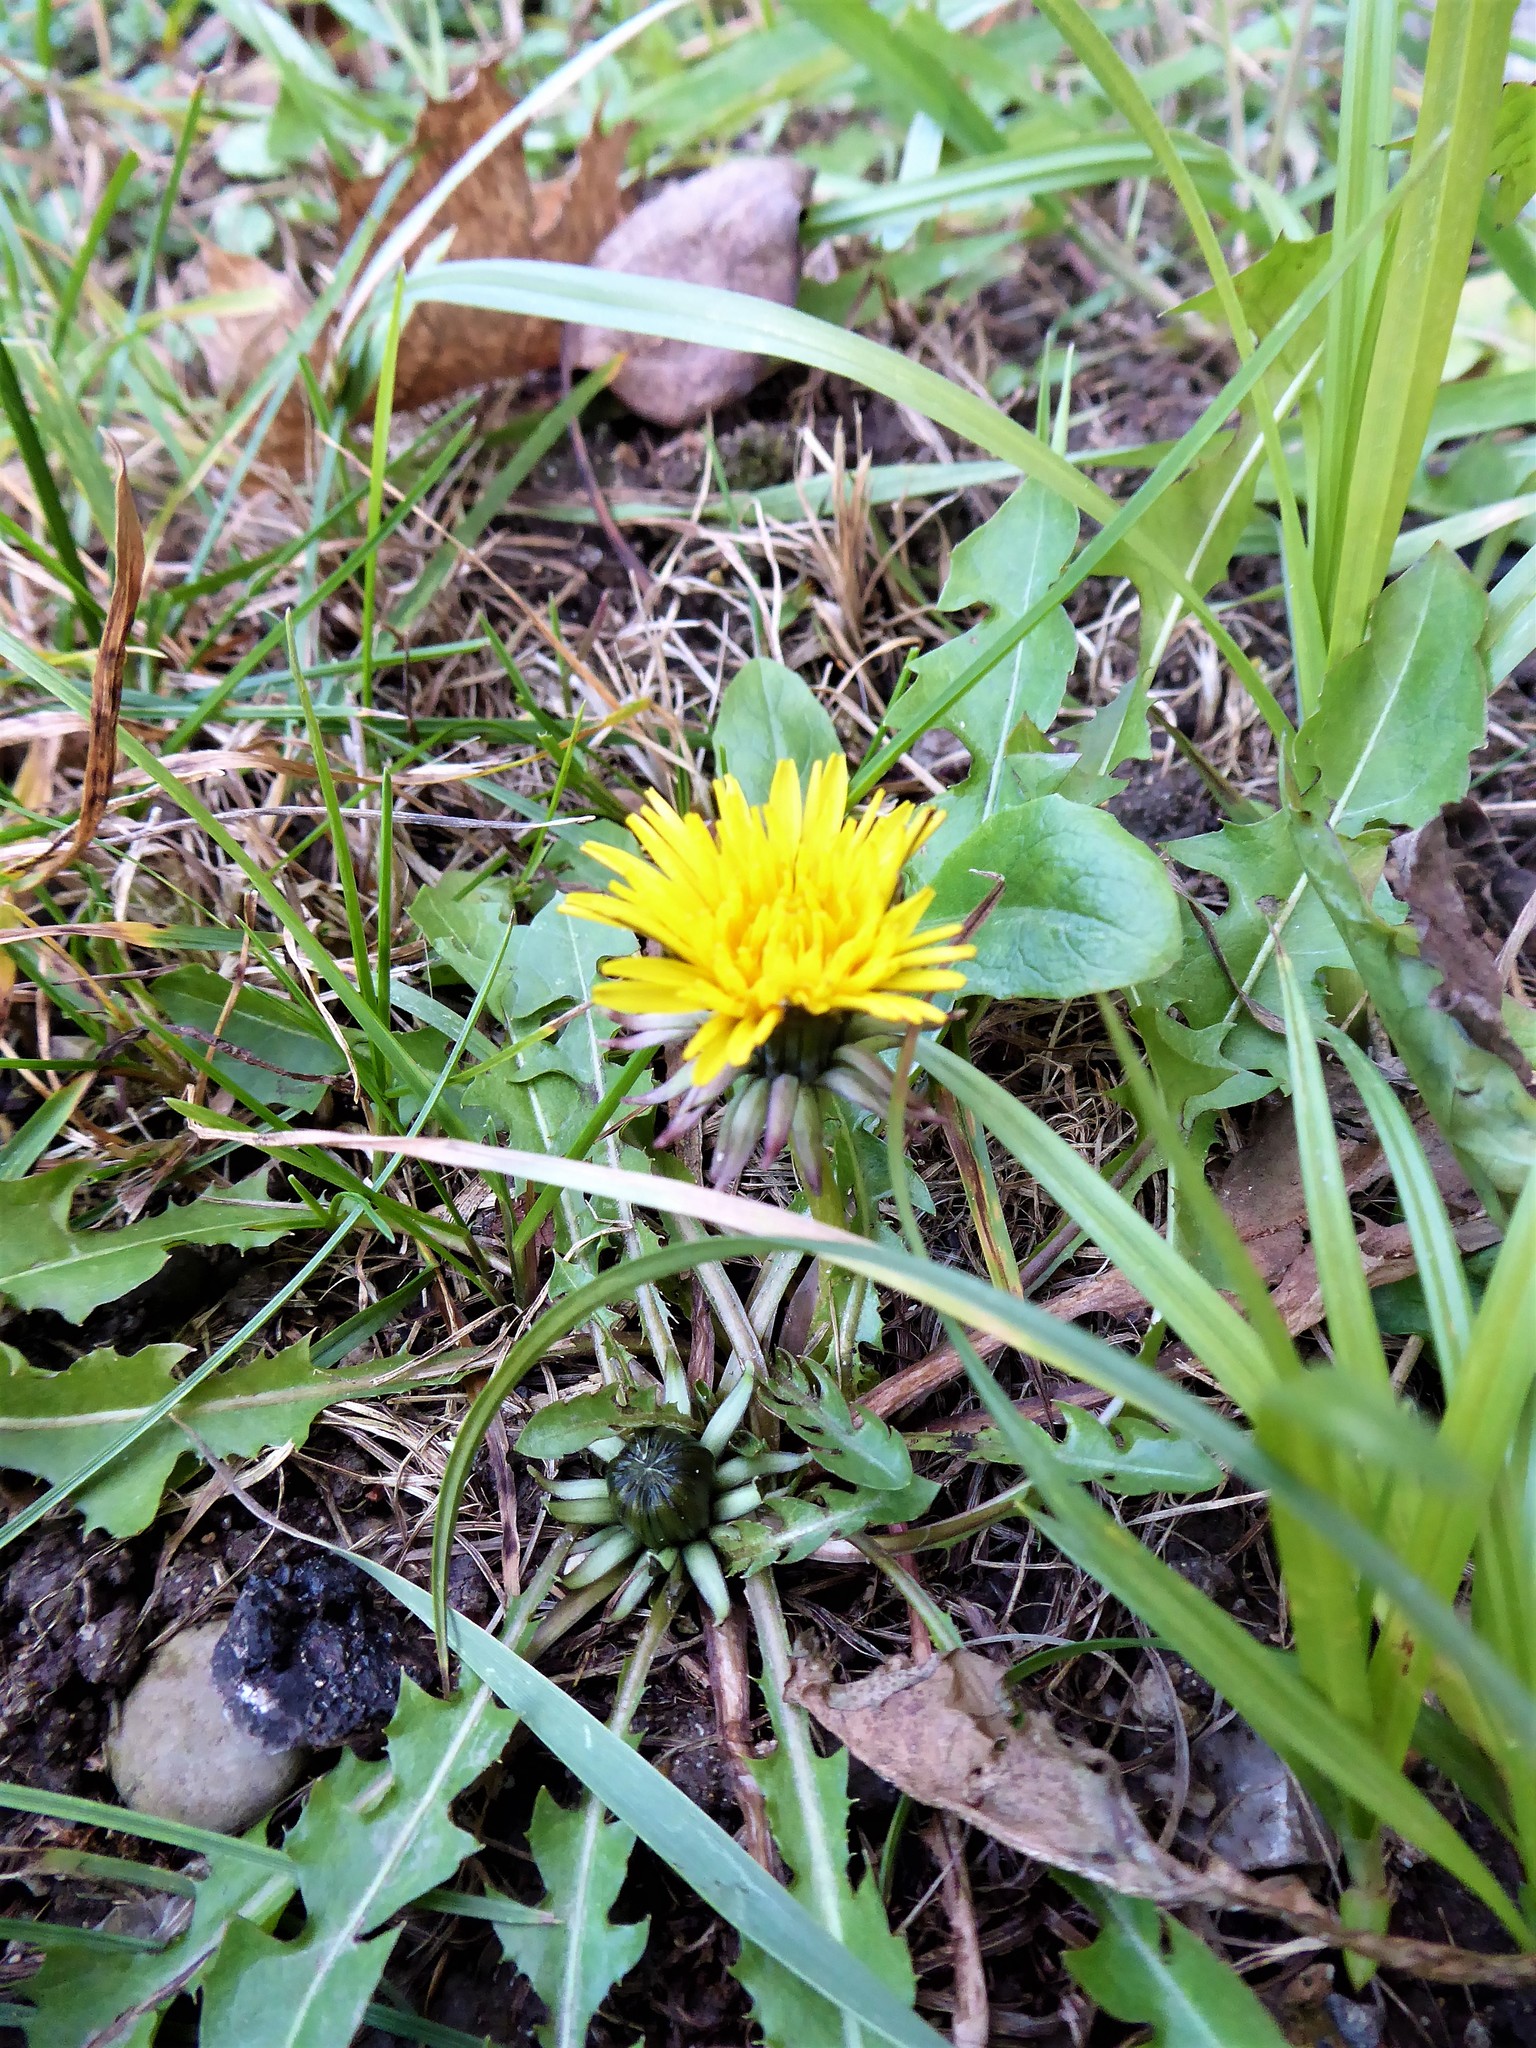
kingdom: Plantae
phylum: Tracheophyta
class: Magnoliopsida
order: Asterales
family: Asteraceae
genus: Taraxacum
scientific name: Taraxacum officinale
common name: Common dandelion
